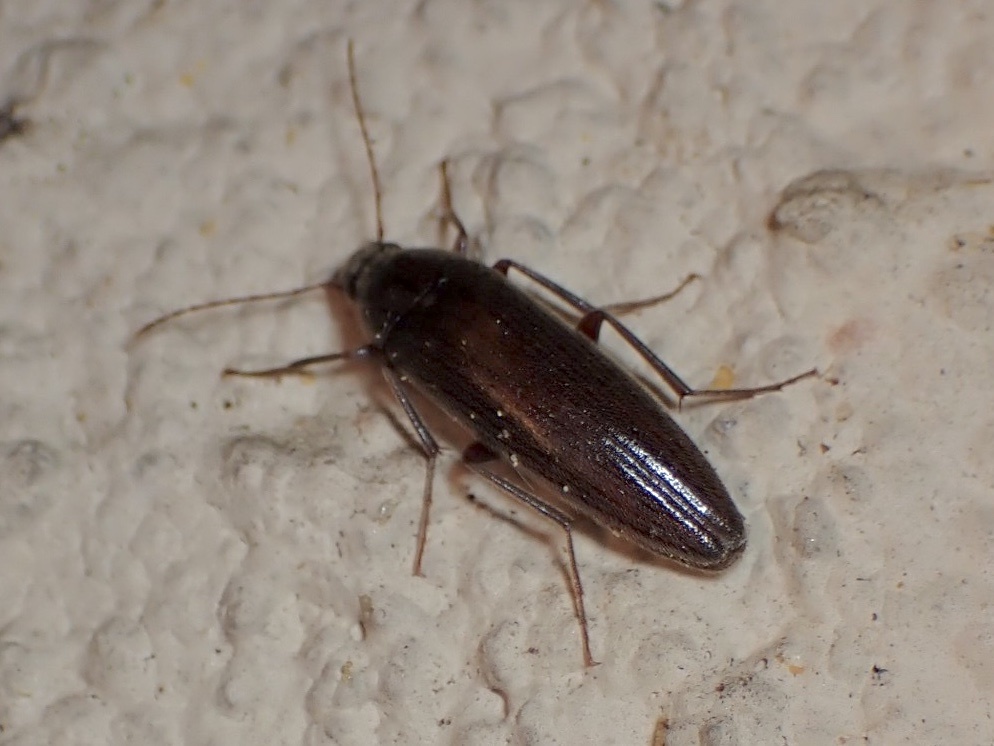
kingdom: Animalia
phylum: Arthropoda
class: Insecta
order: Coleoptera
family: Synchroidae
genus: Synchroa
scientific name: Synchroa punctata
